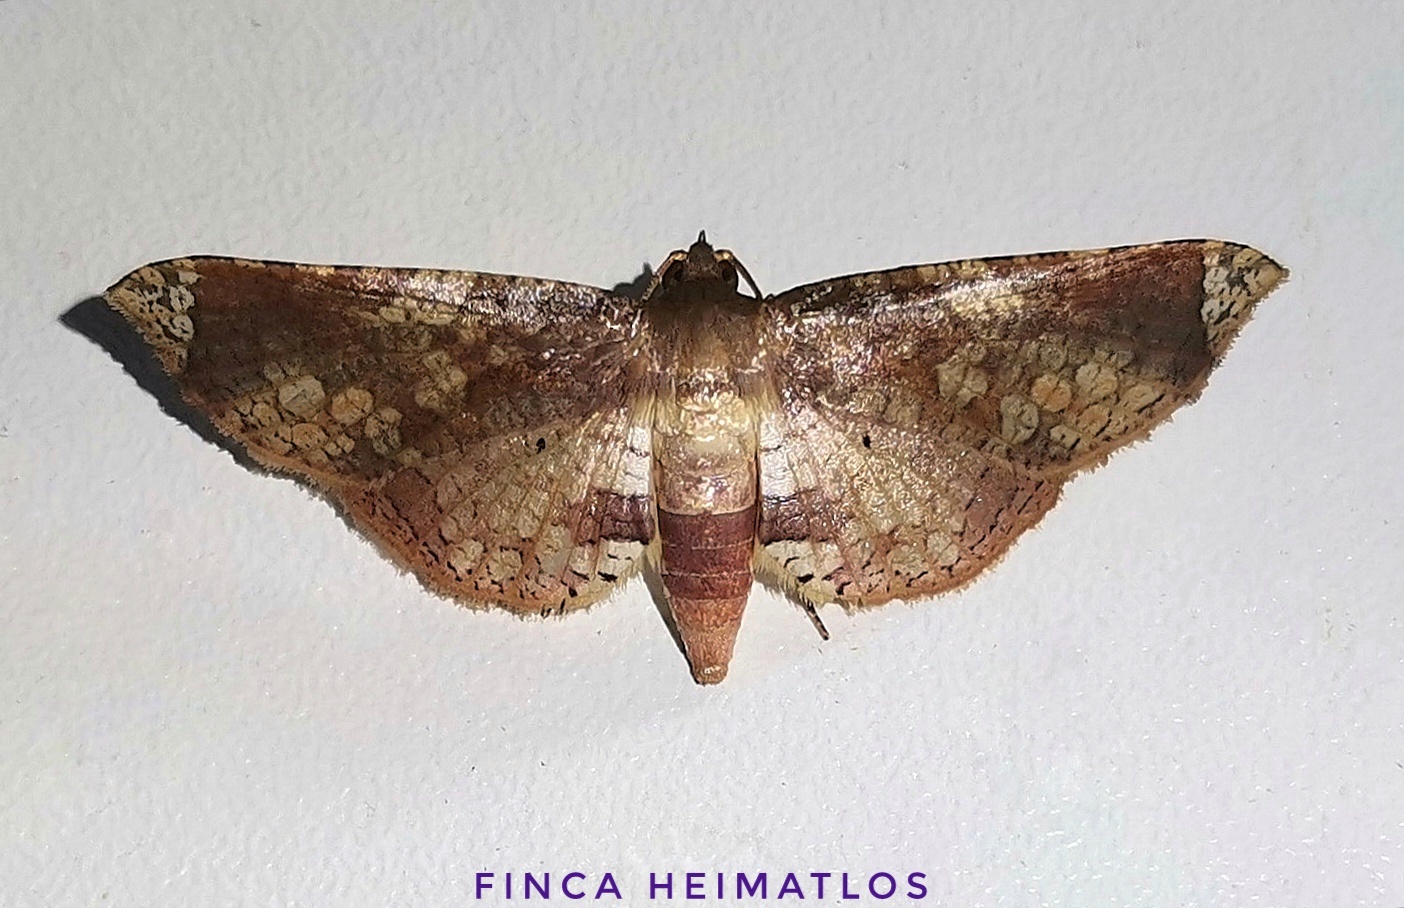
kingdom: Animalia
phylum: Arthropoda
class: Insecta
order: Lepidoptera
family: Thyrididae
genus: Microsca
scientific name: Microsca hedilalis
